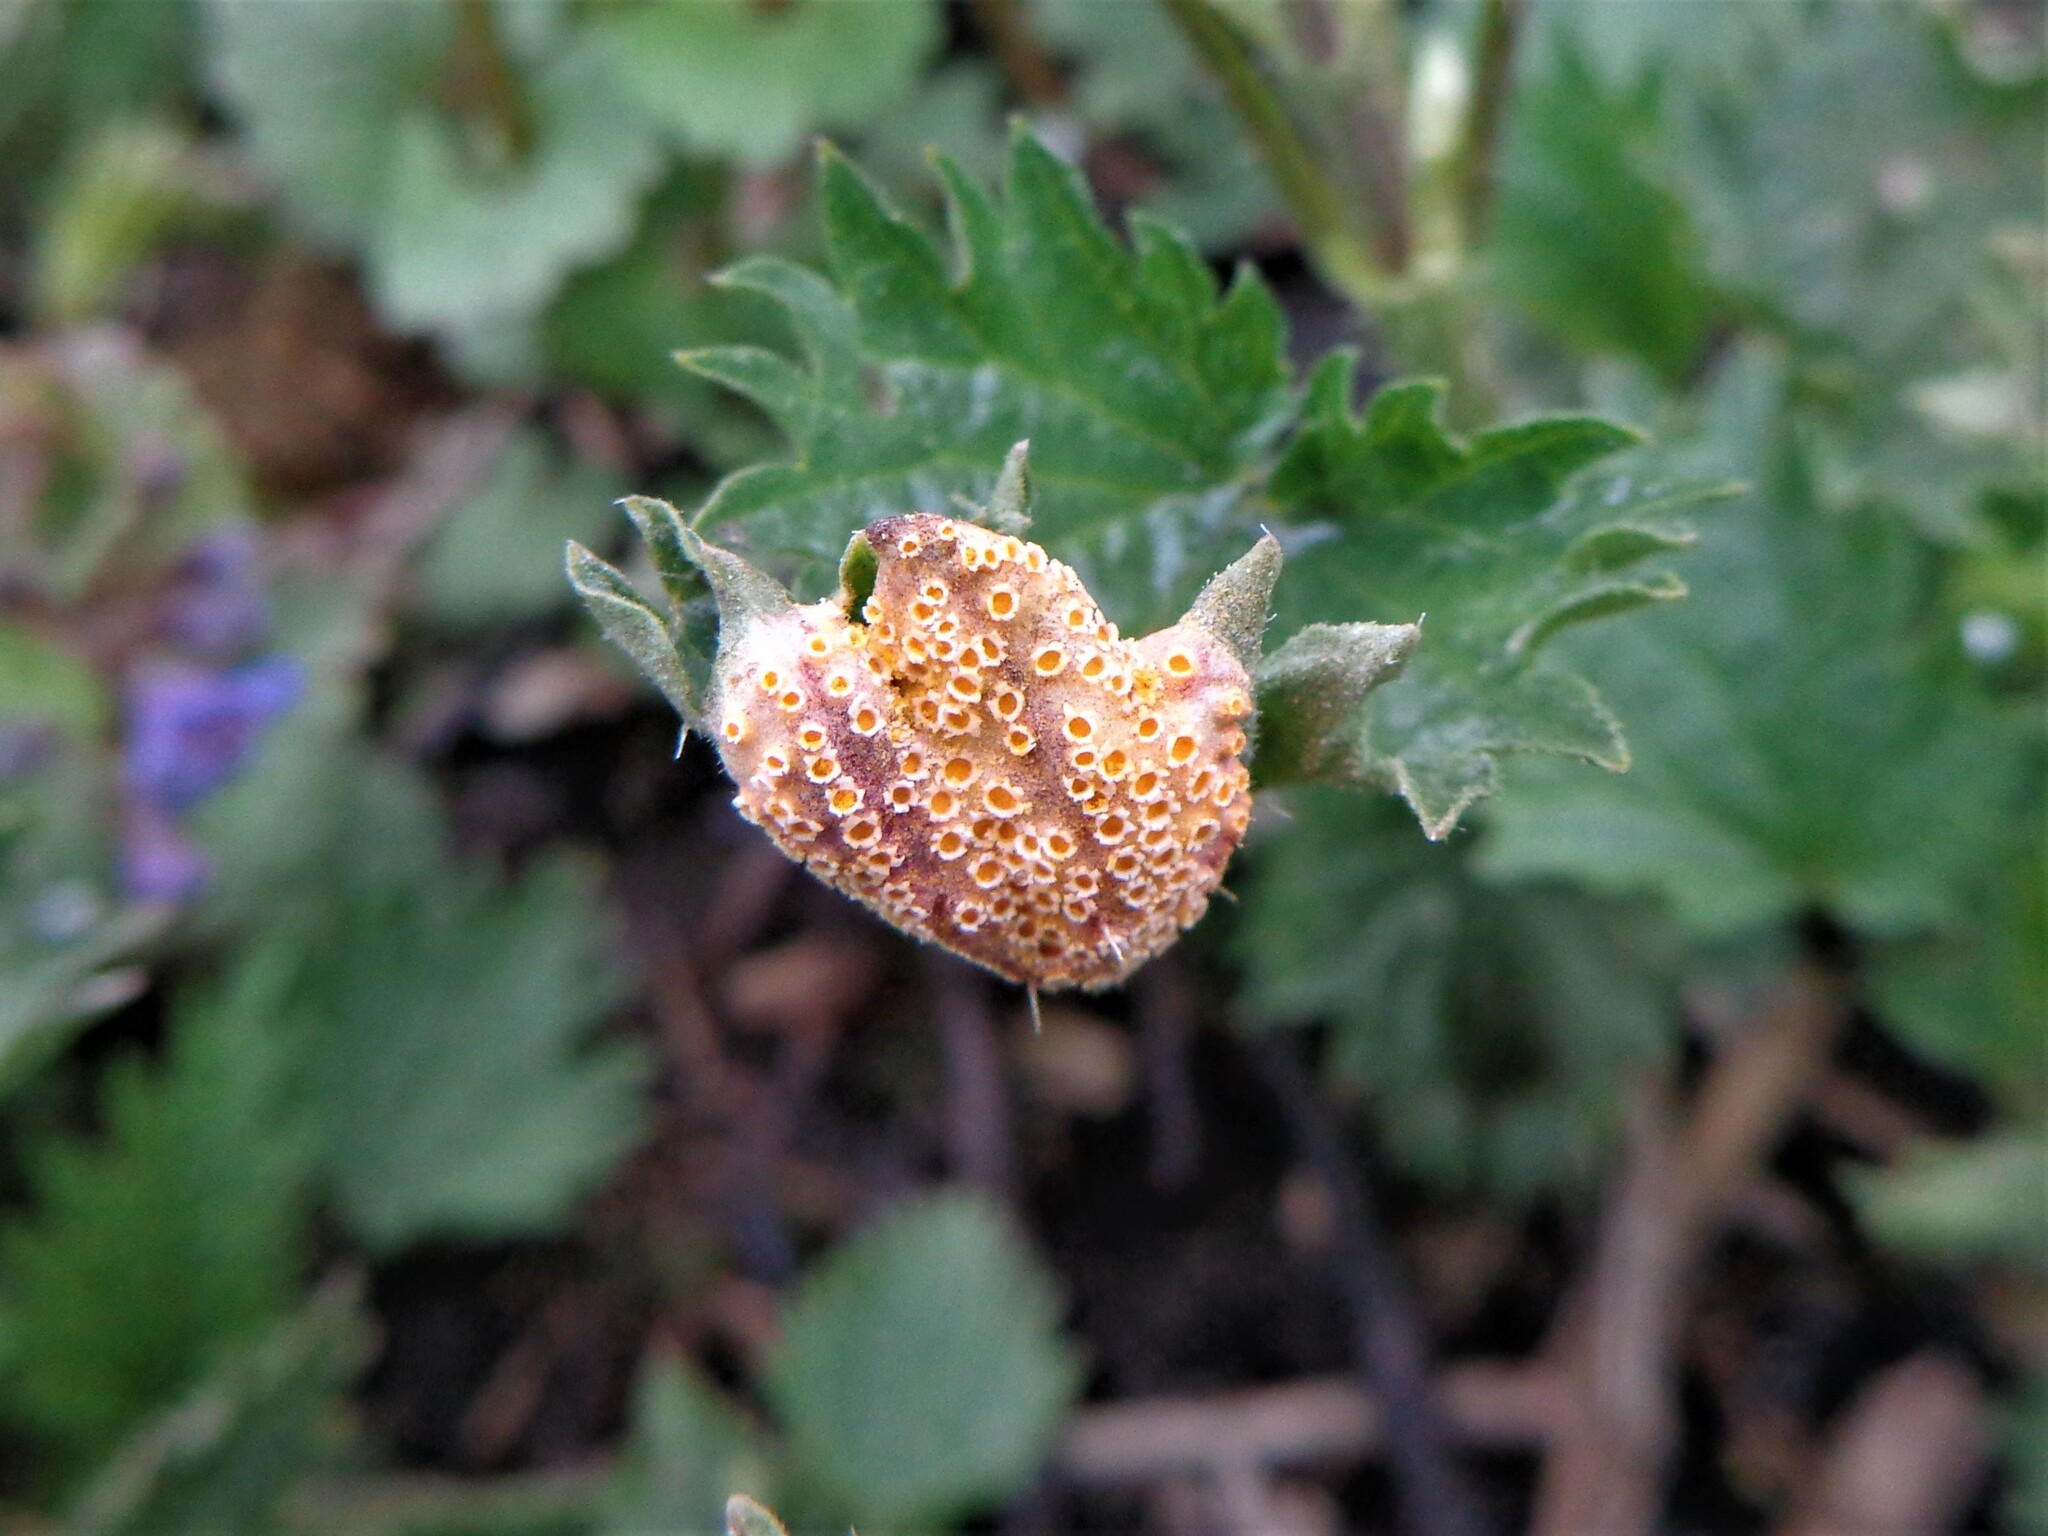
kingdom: Fungi
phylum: Basidiomycota
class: Pucciniomycetes
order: Pucciniales
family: Pucciniaceae
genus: Puccinia
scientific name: Puccinia urticata
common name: Nettle clustercup rust fungus
